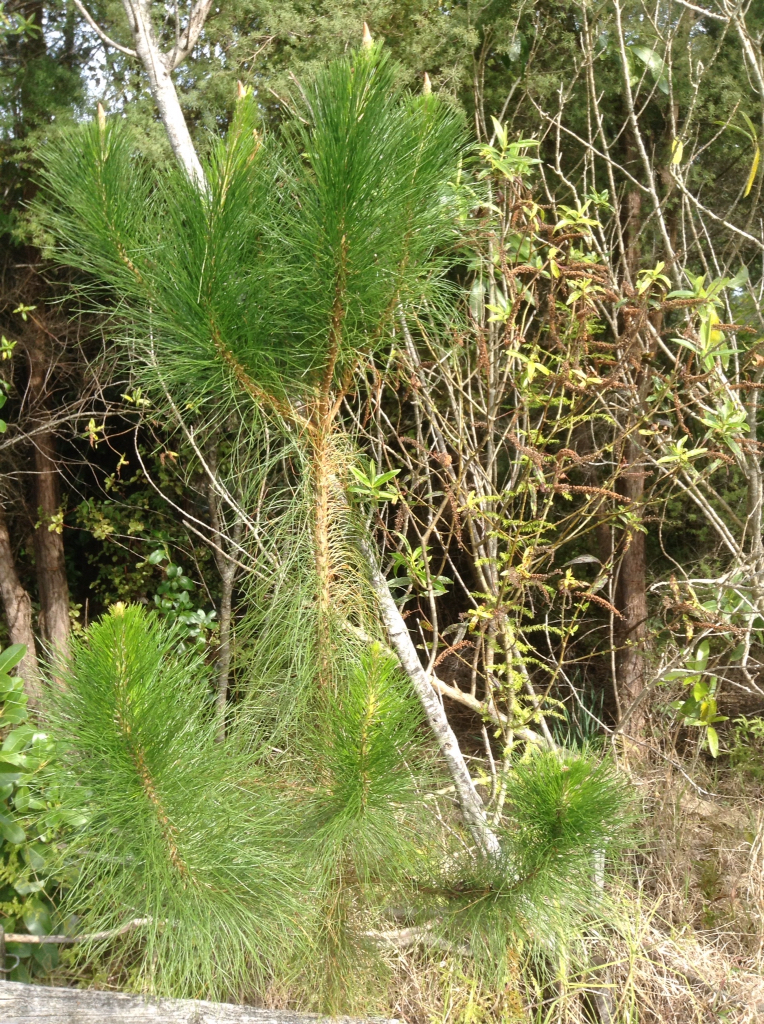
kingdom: Plantae
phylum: Tracheophyta
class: Pinopsida
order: Pinales
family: Pinaceae
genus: Pinus
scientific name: Pinus radiata
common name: Monterey pine
